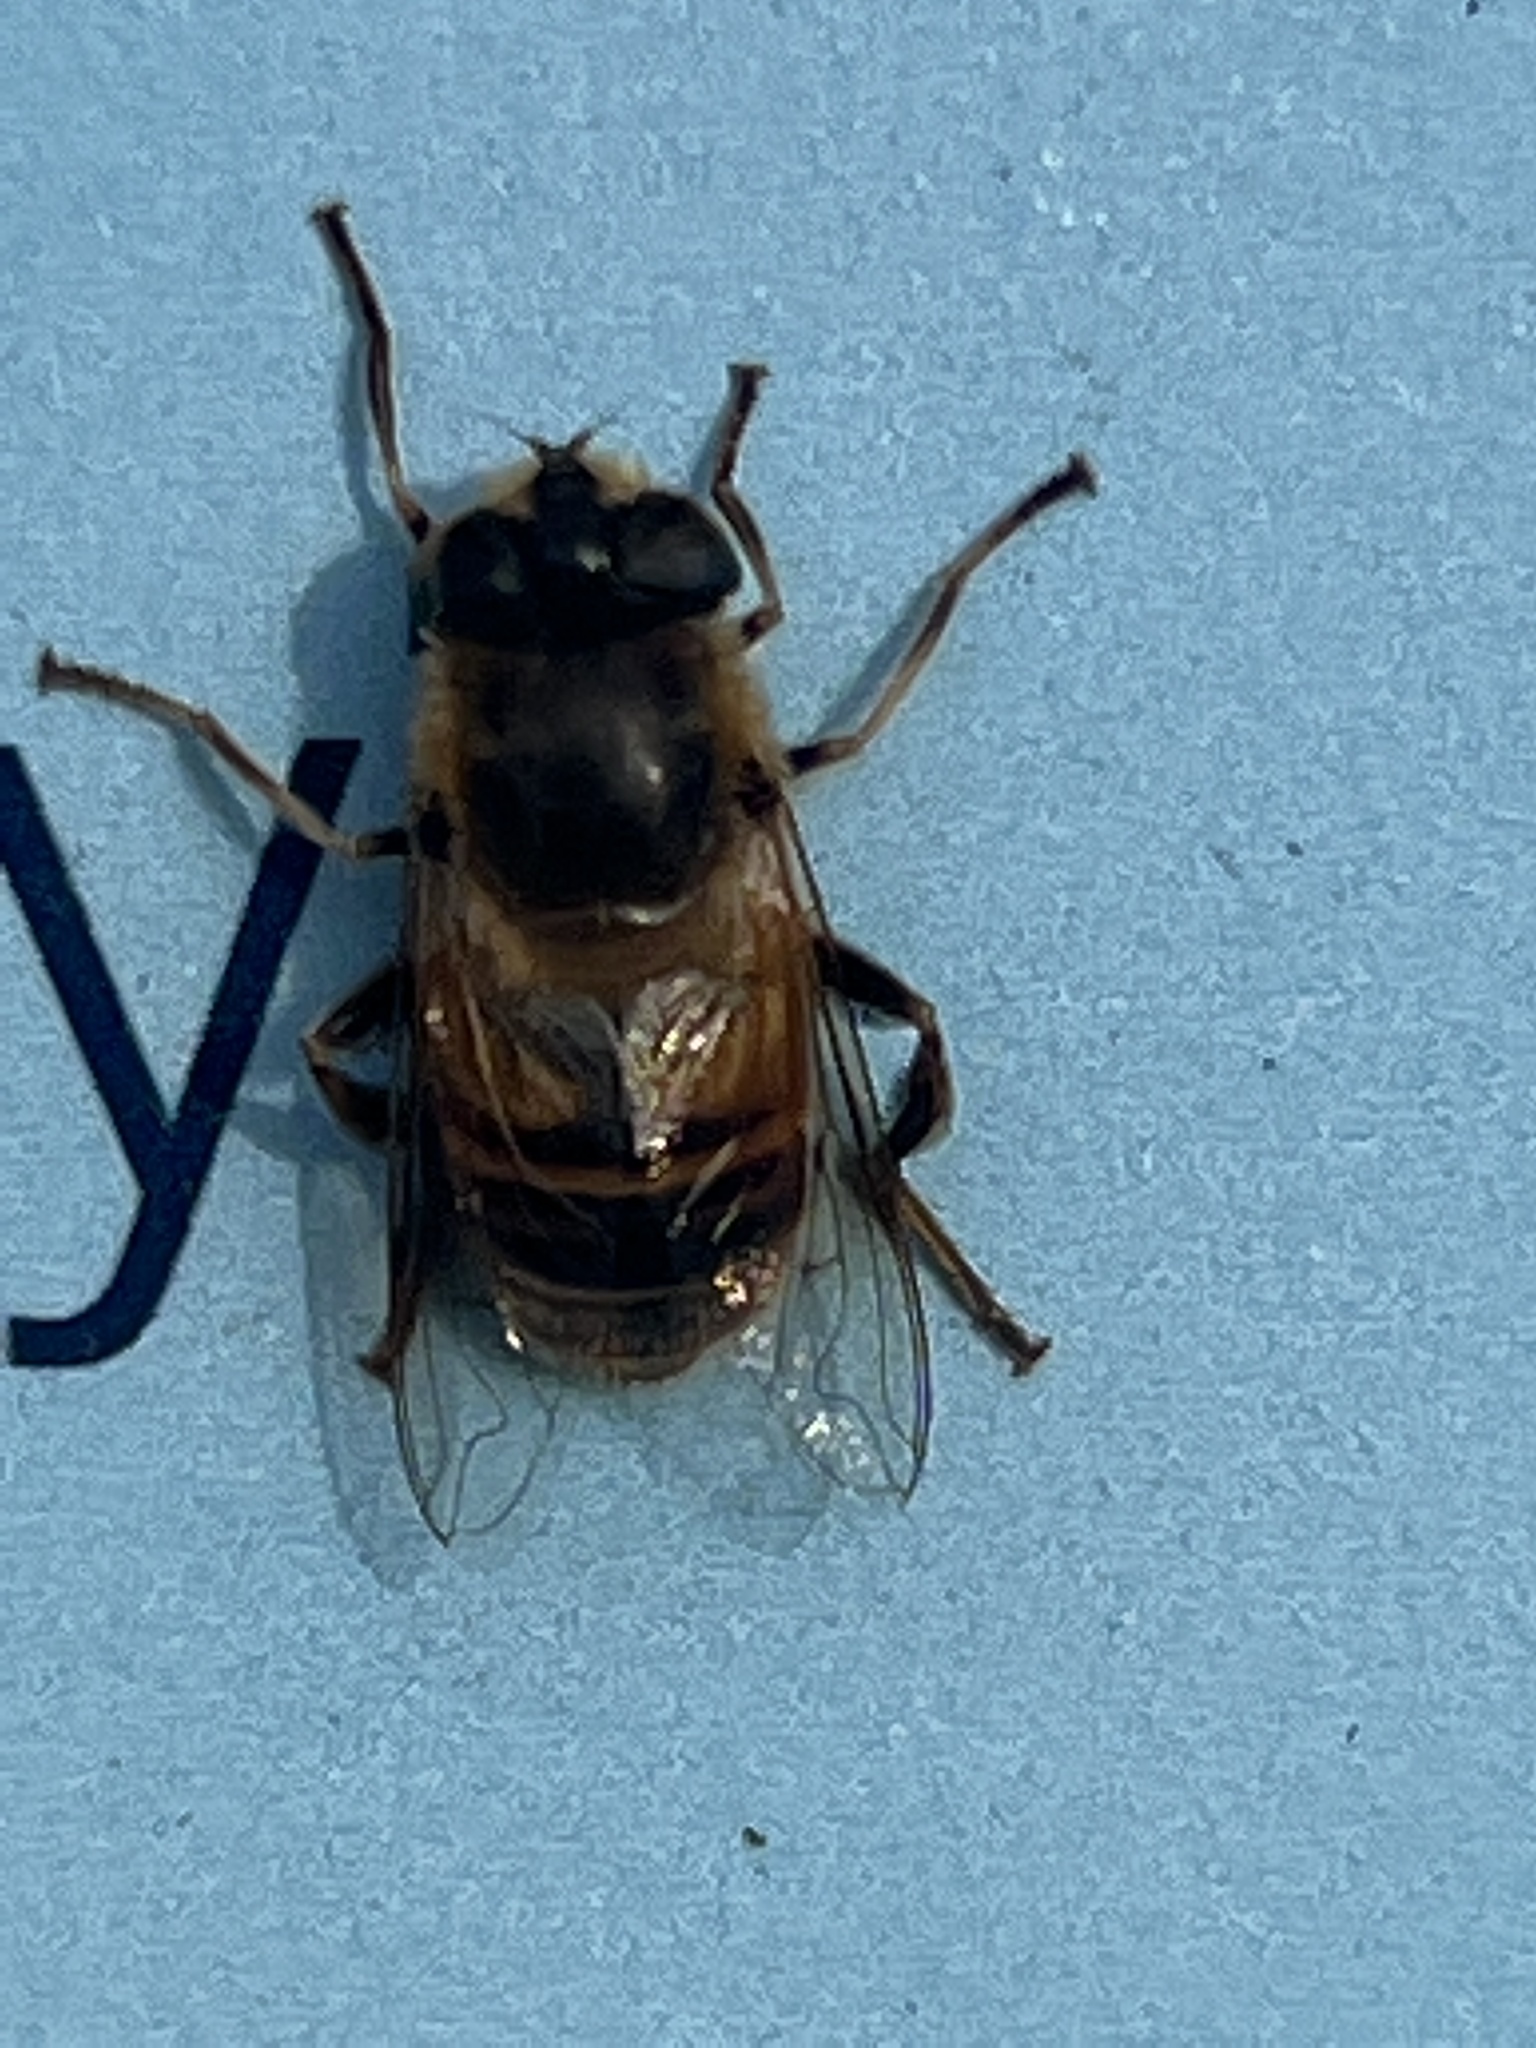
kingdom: Animalia
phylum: Arthropoda
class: Insecta
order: Diptera
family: Syrphidae
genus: Eristalis
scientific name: Eristalis tenax
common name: Drone fly
